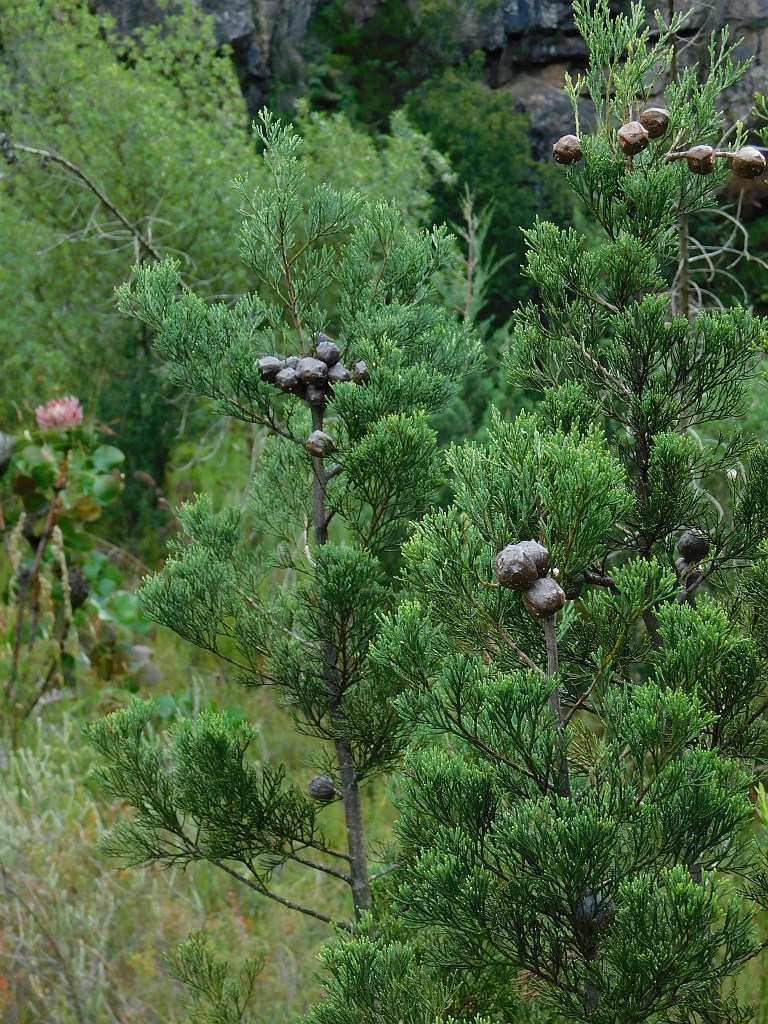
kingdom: Plantae
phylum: Tracheophyta
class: Pinopsida
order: Pinales
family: Cupressaceae
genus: Widdringtonia
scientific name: Widdringtonia nodiflora
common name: Cape cypress
